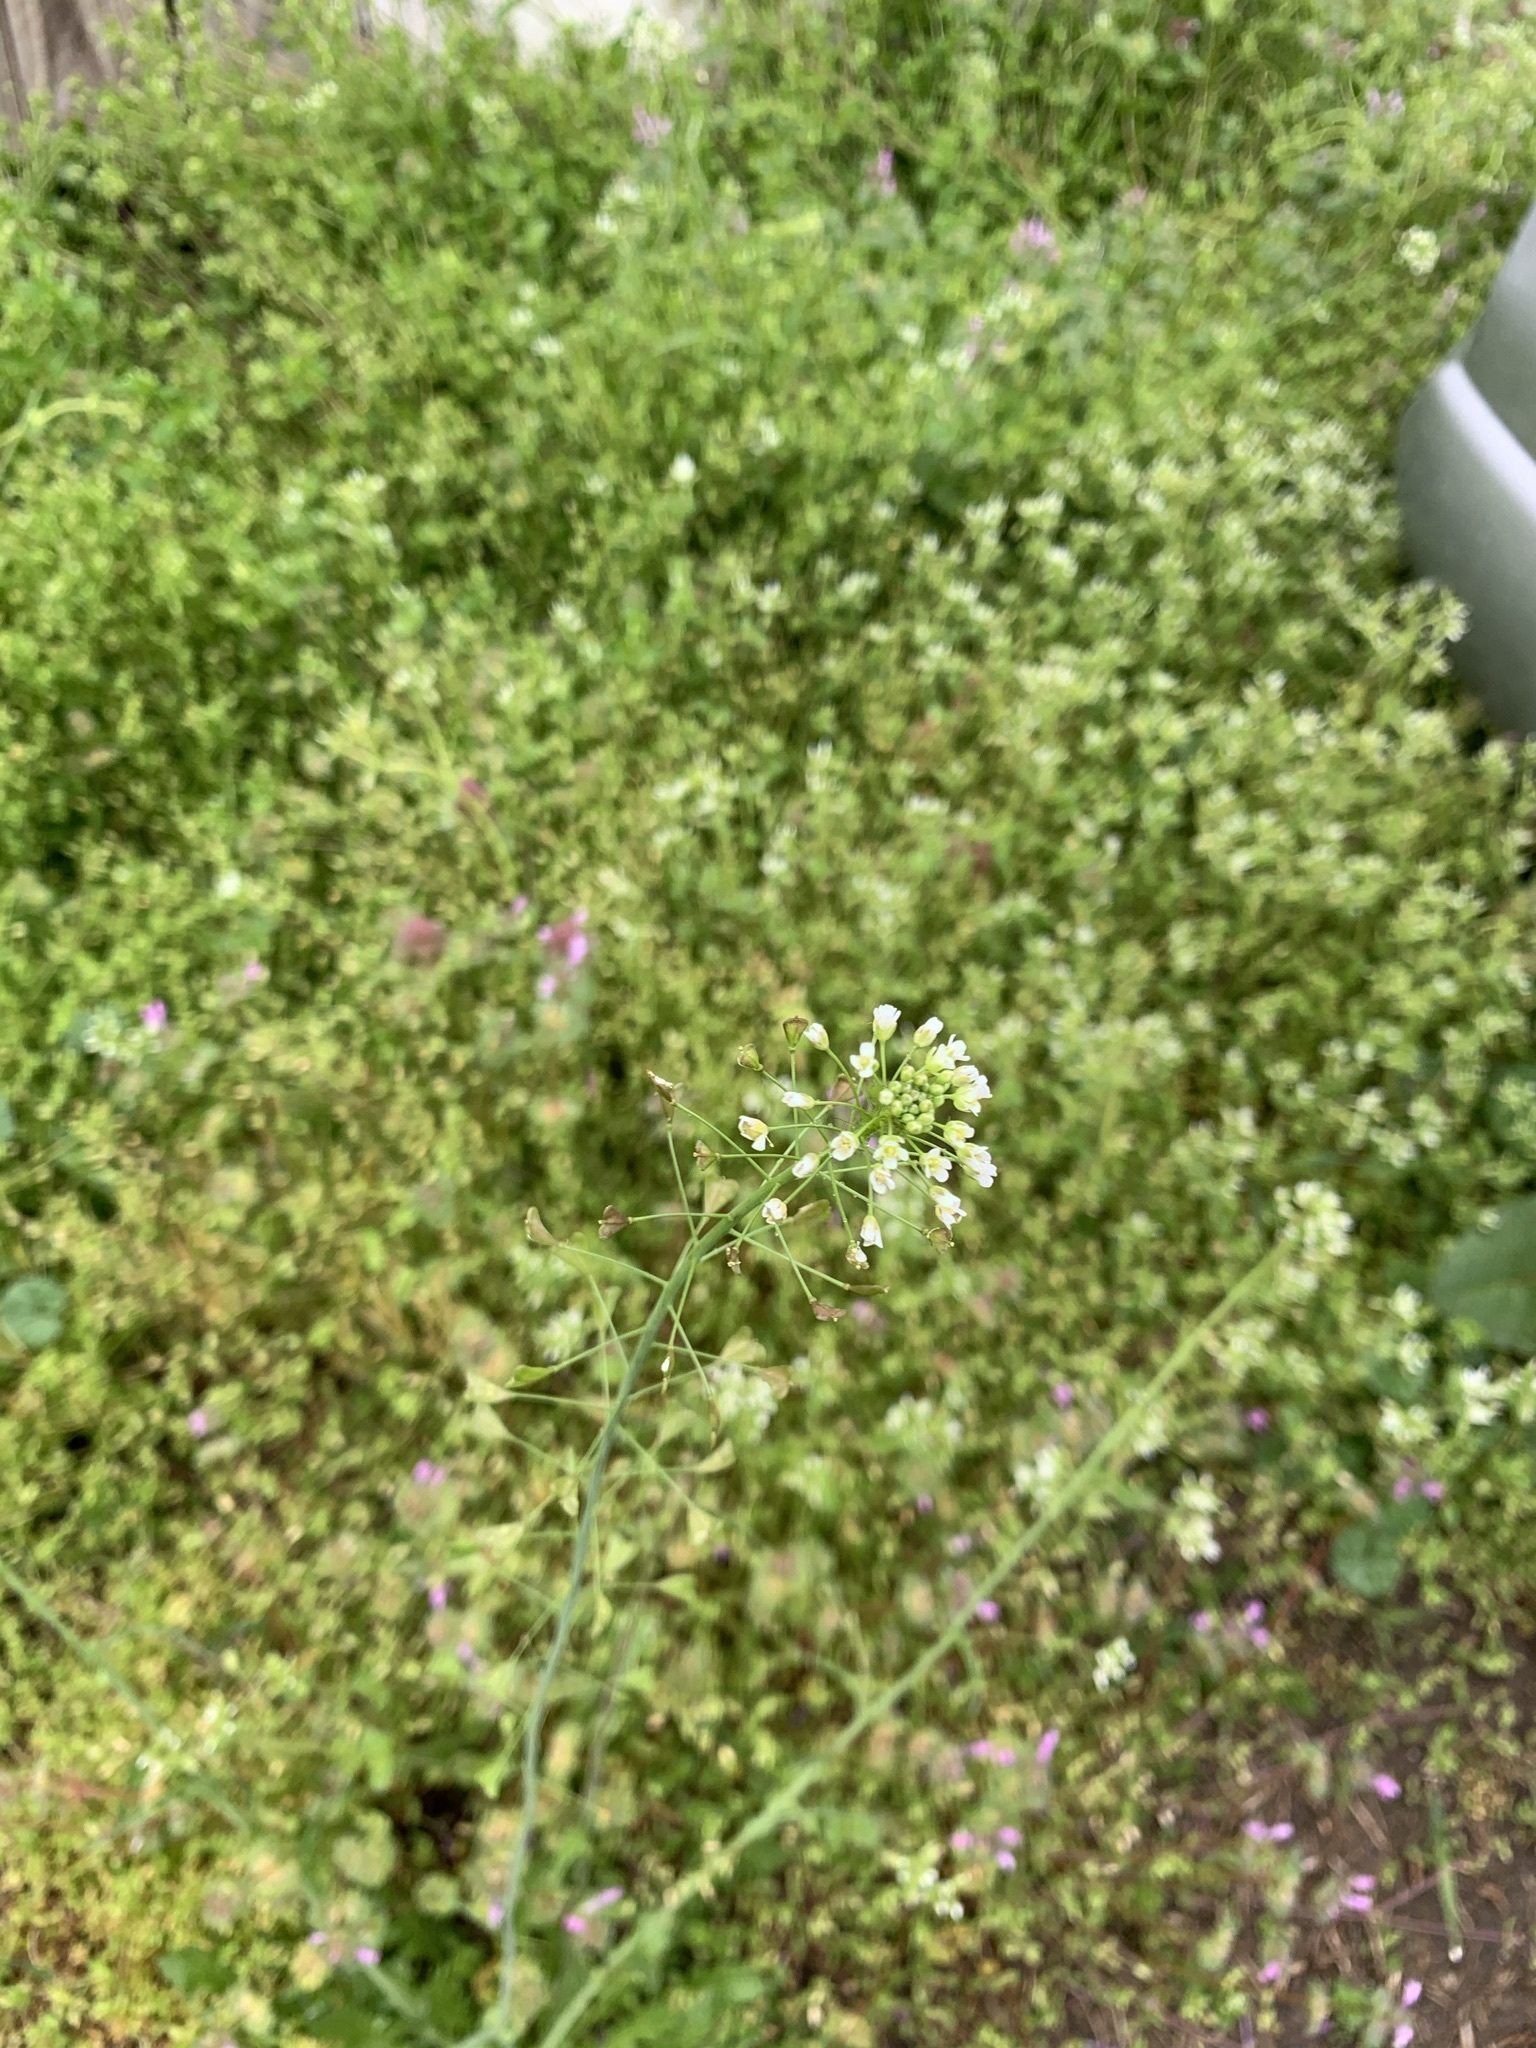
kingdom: Plantae
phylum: Tracheophyta
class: Magnoliopsida
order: Brassicales
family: Brassicaceae
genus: Capsella
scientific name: Capsella bursa-pastoris
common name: Shepherd's purse
